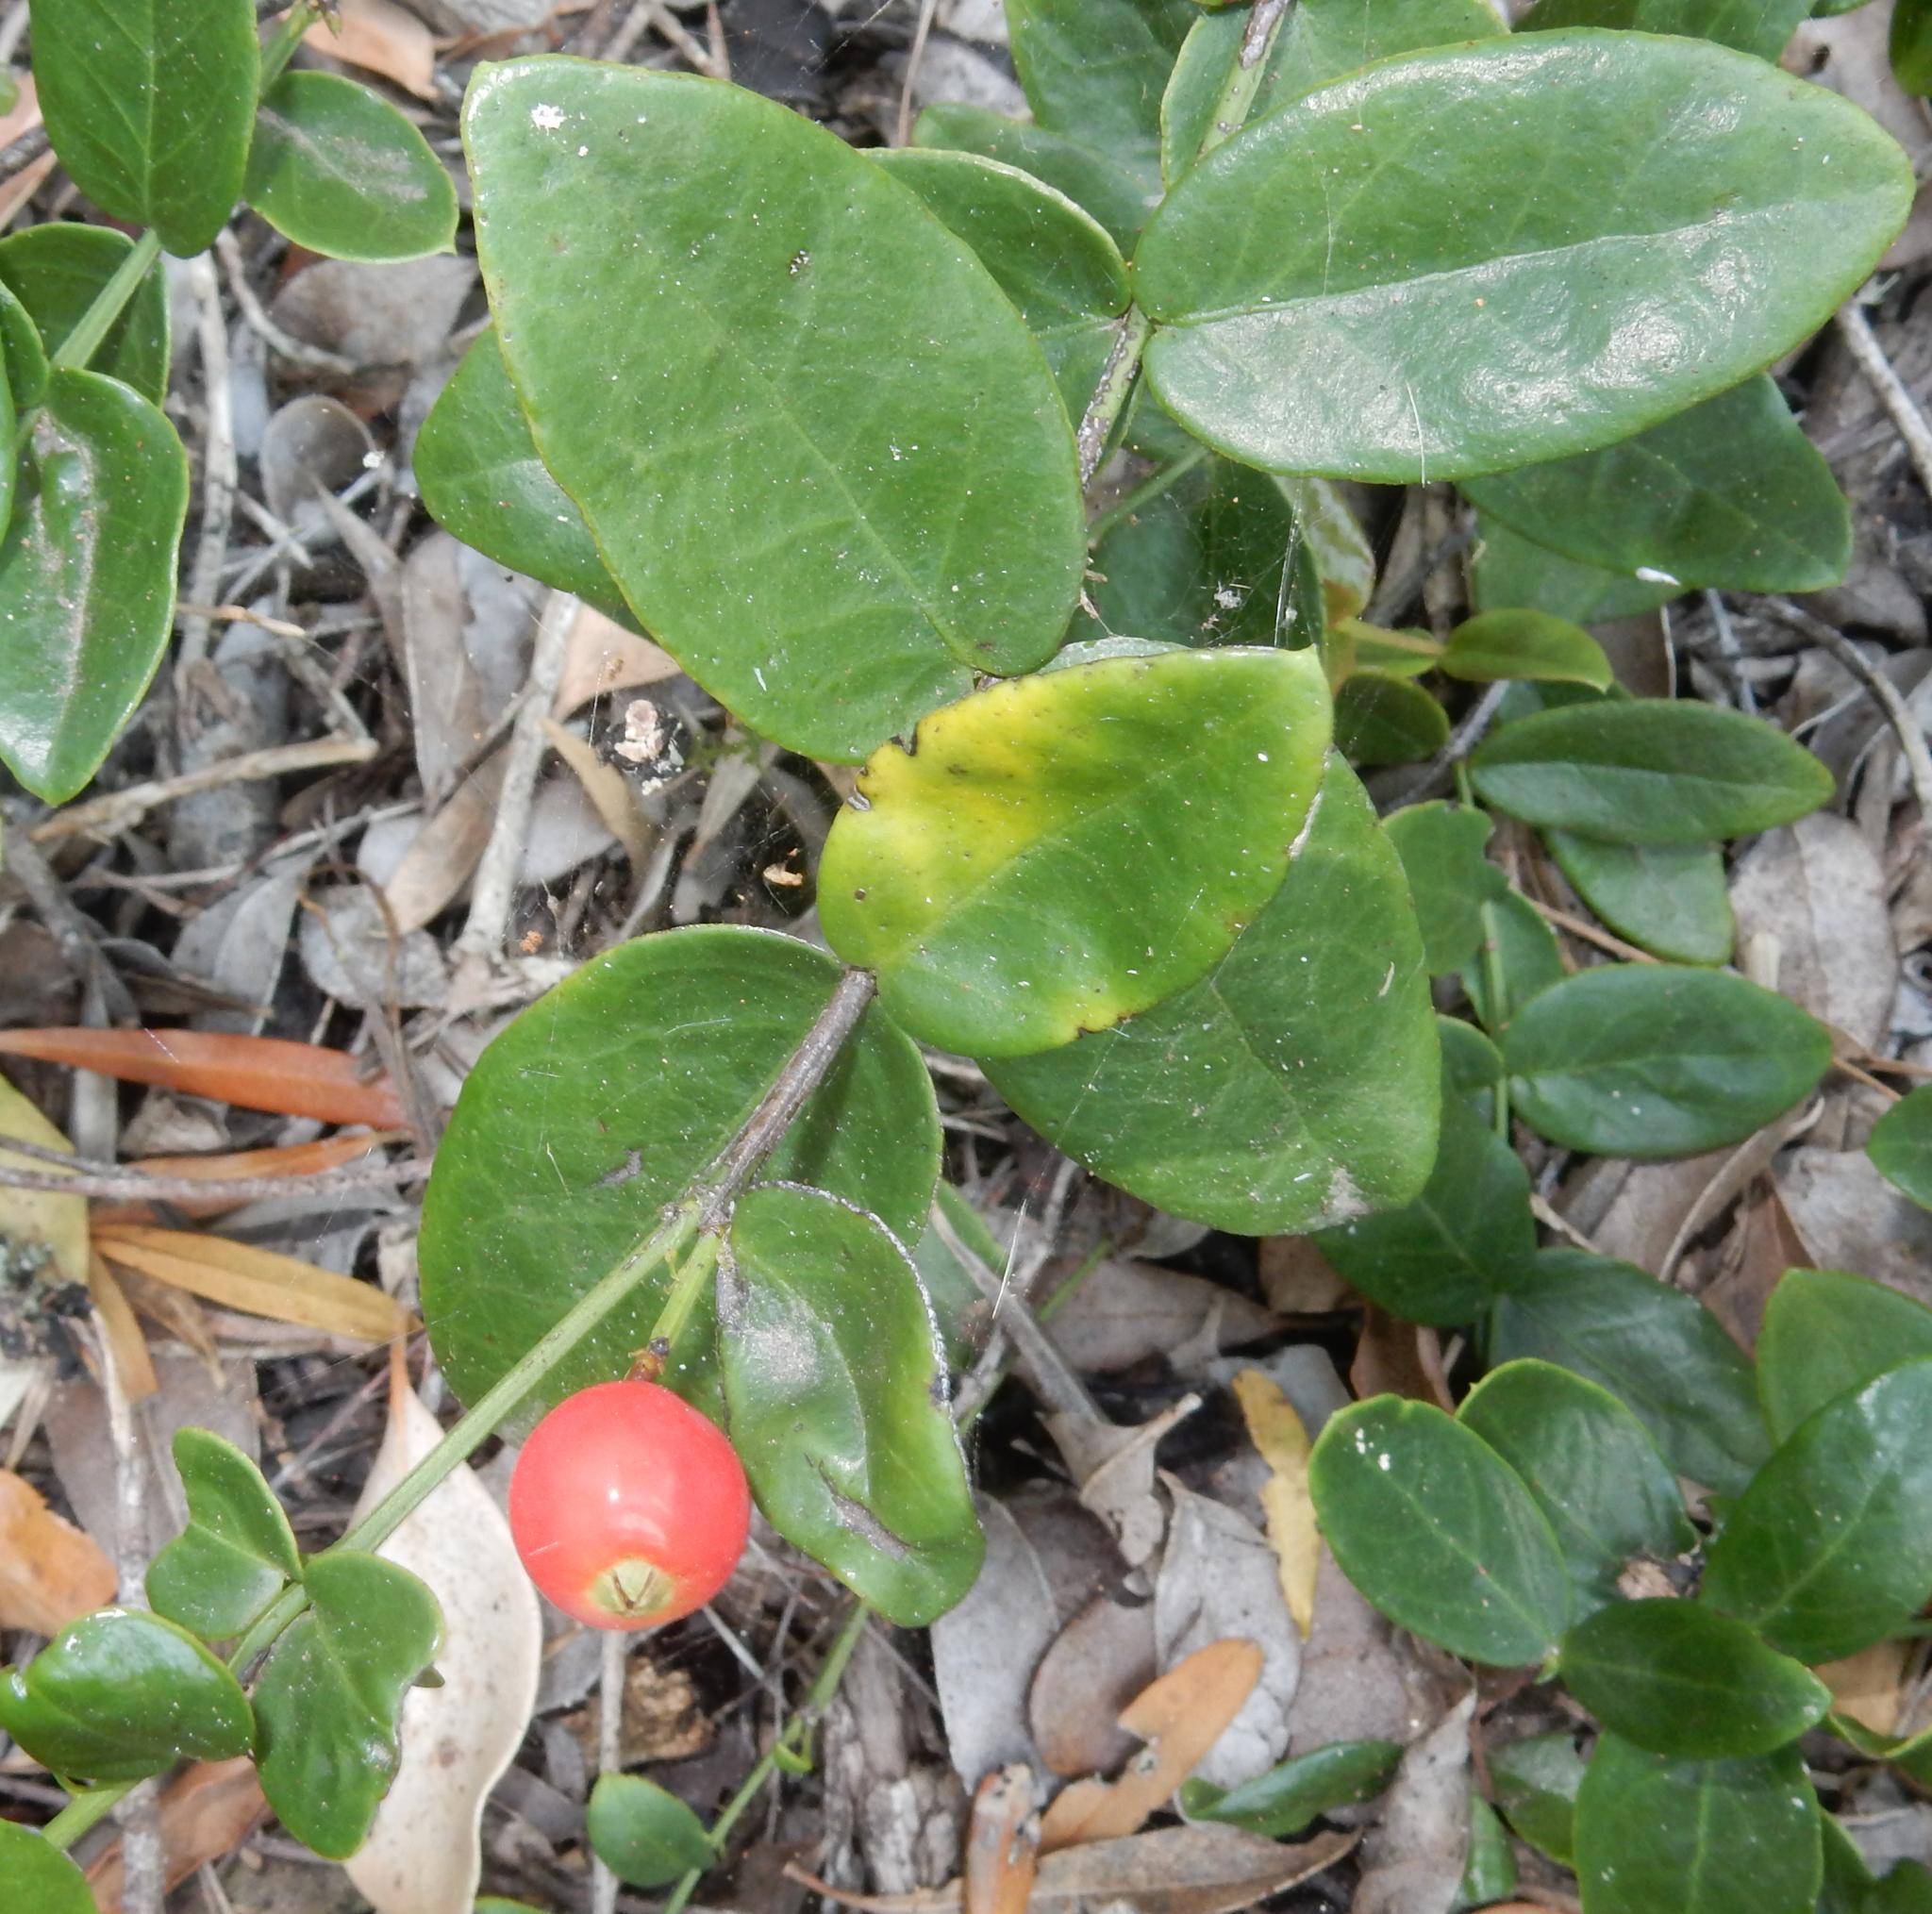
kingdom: Plantae
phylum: Tracheophyta
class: Magnoliopsida
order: Santalales
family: Santalaceae
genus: Rhoiacarpos
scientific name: Rhoiacarpos capensis
